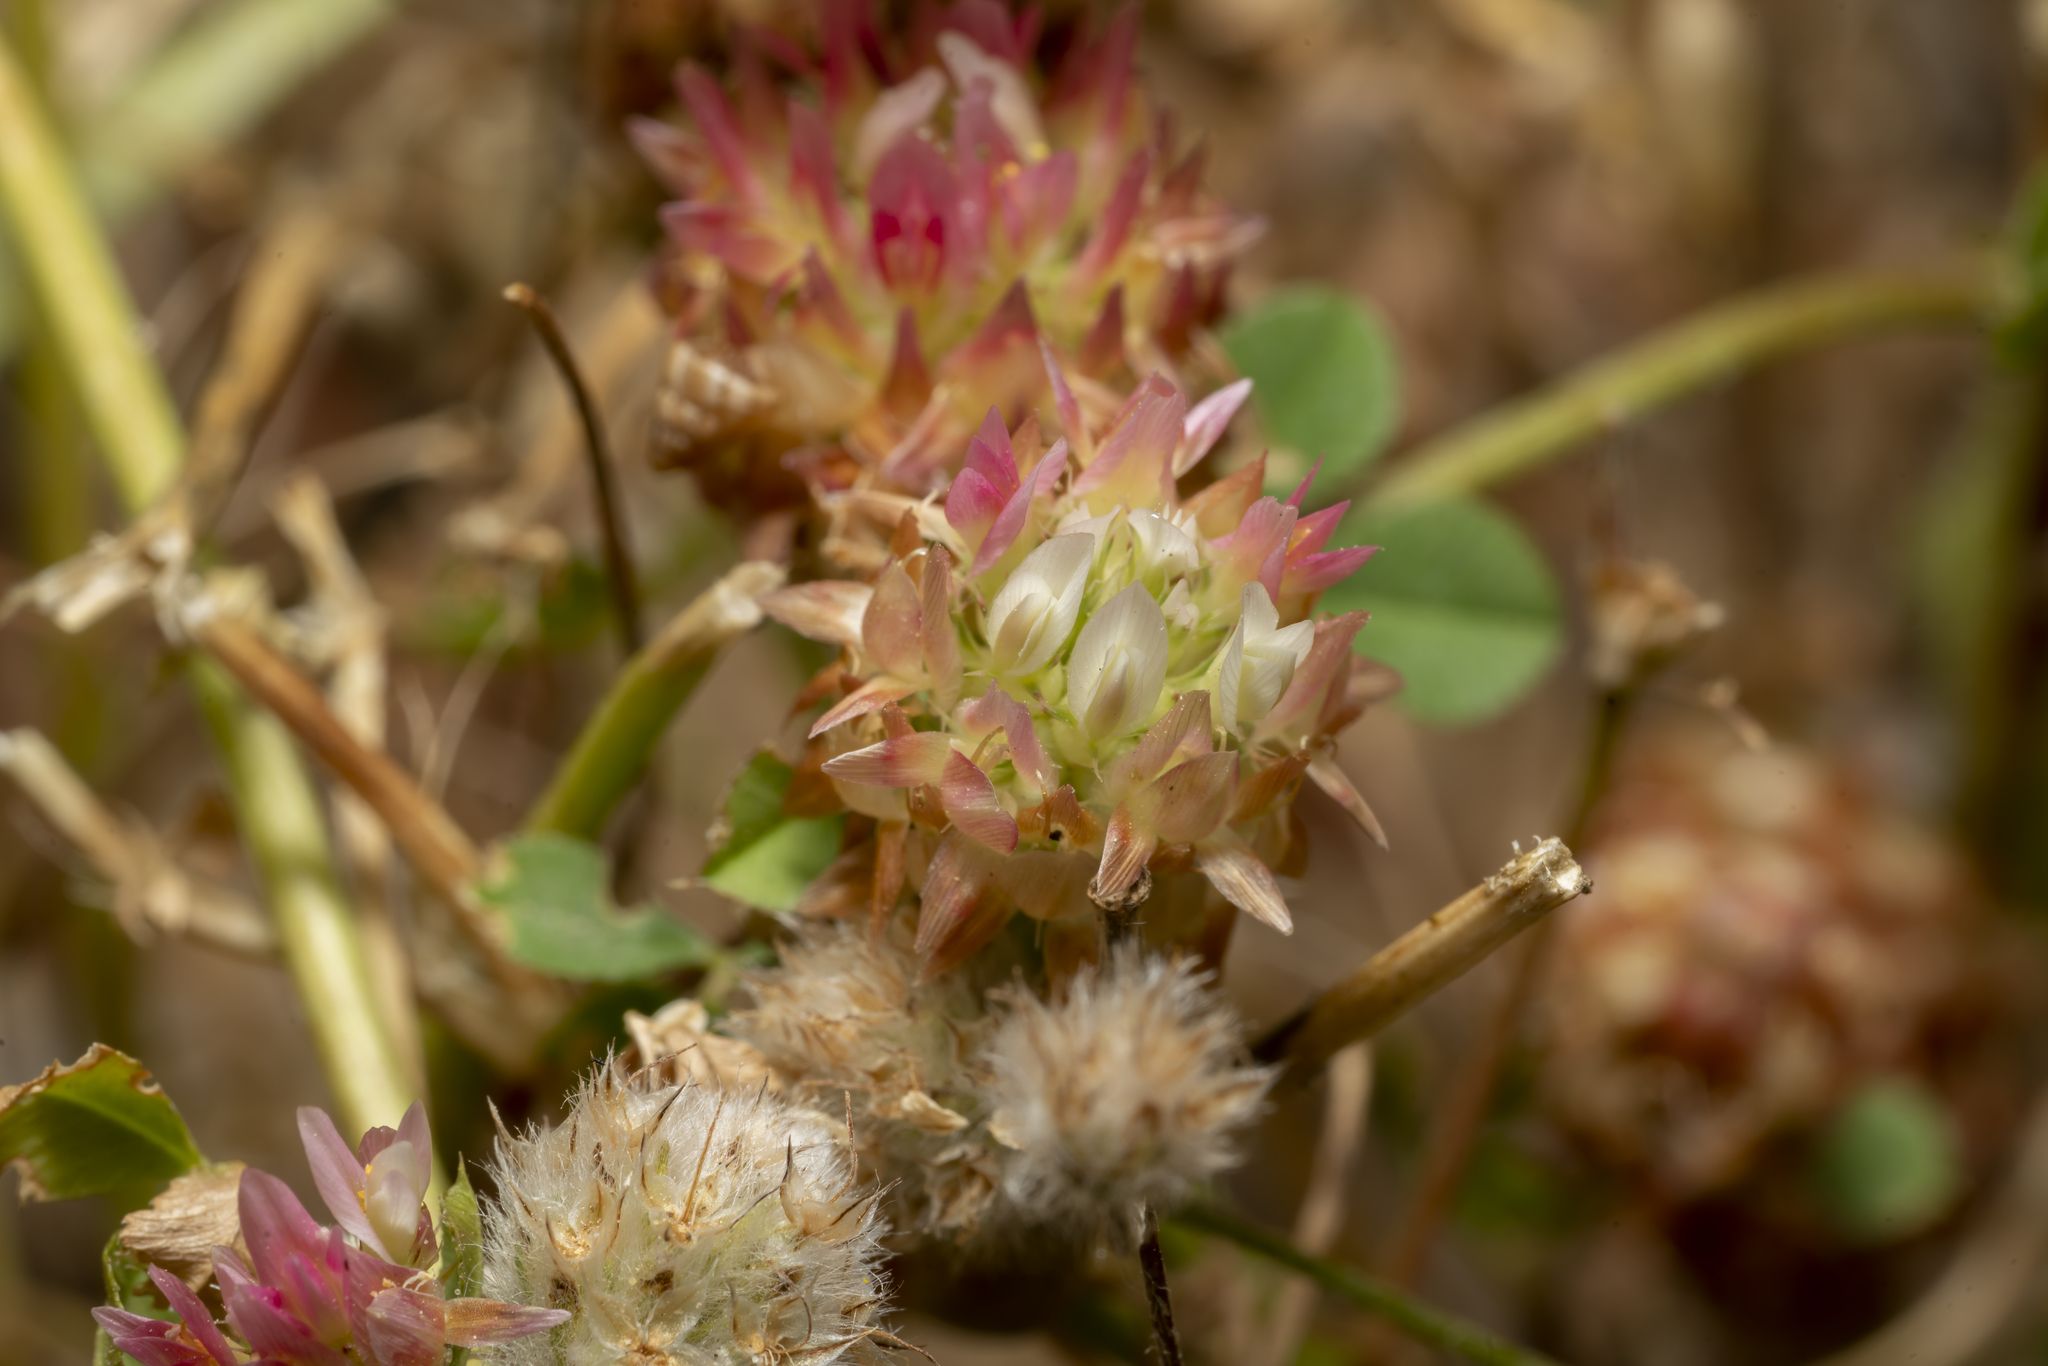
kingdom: Plantae
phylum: Tracheophyta
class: Magnoliopsida
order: Fabales
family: Fabaceae
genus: Trifolium
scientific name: Trifolium argutum
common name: Sharp-tooth clover
